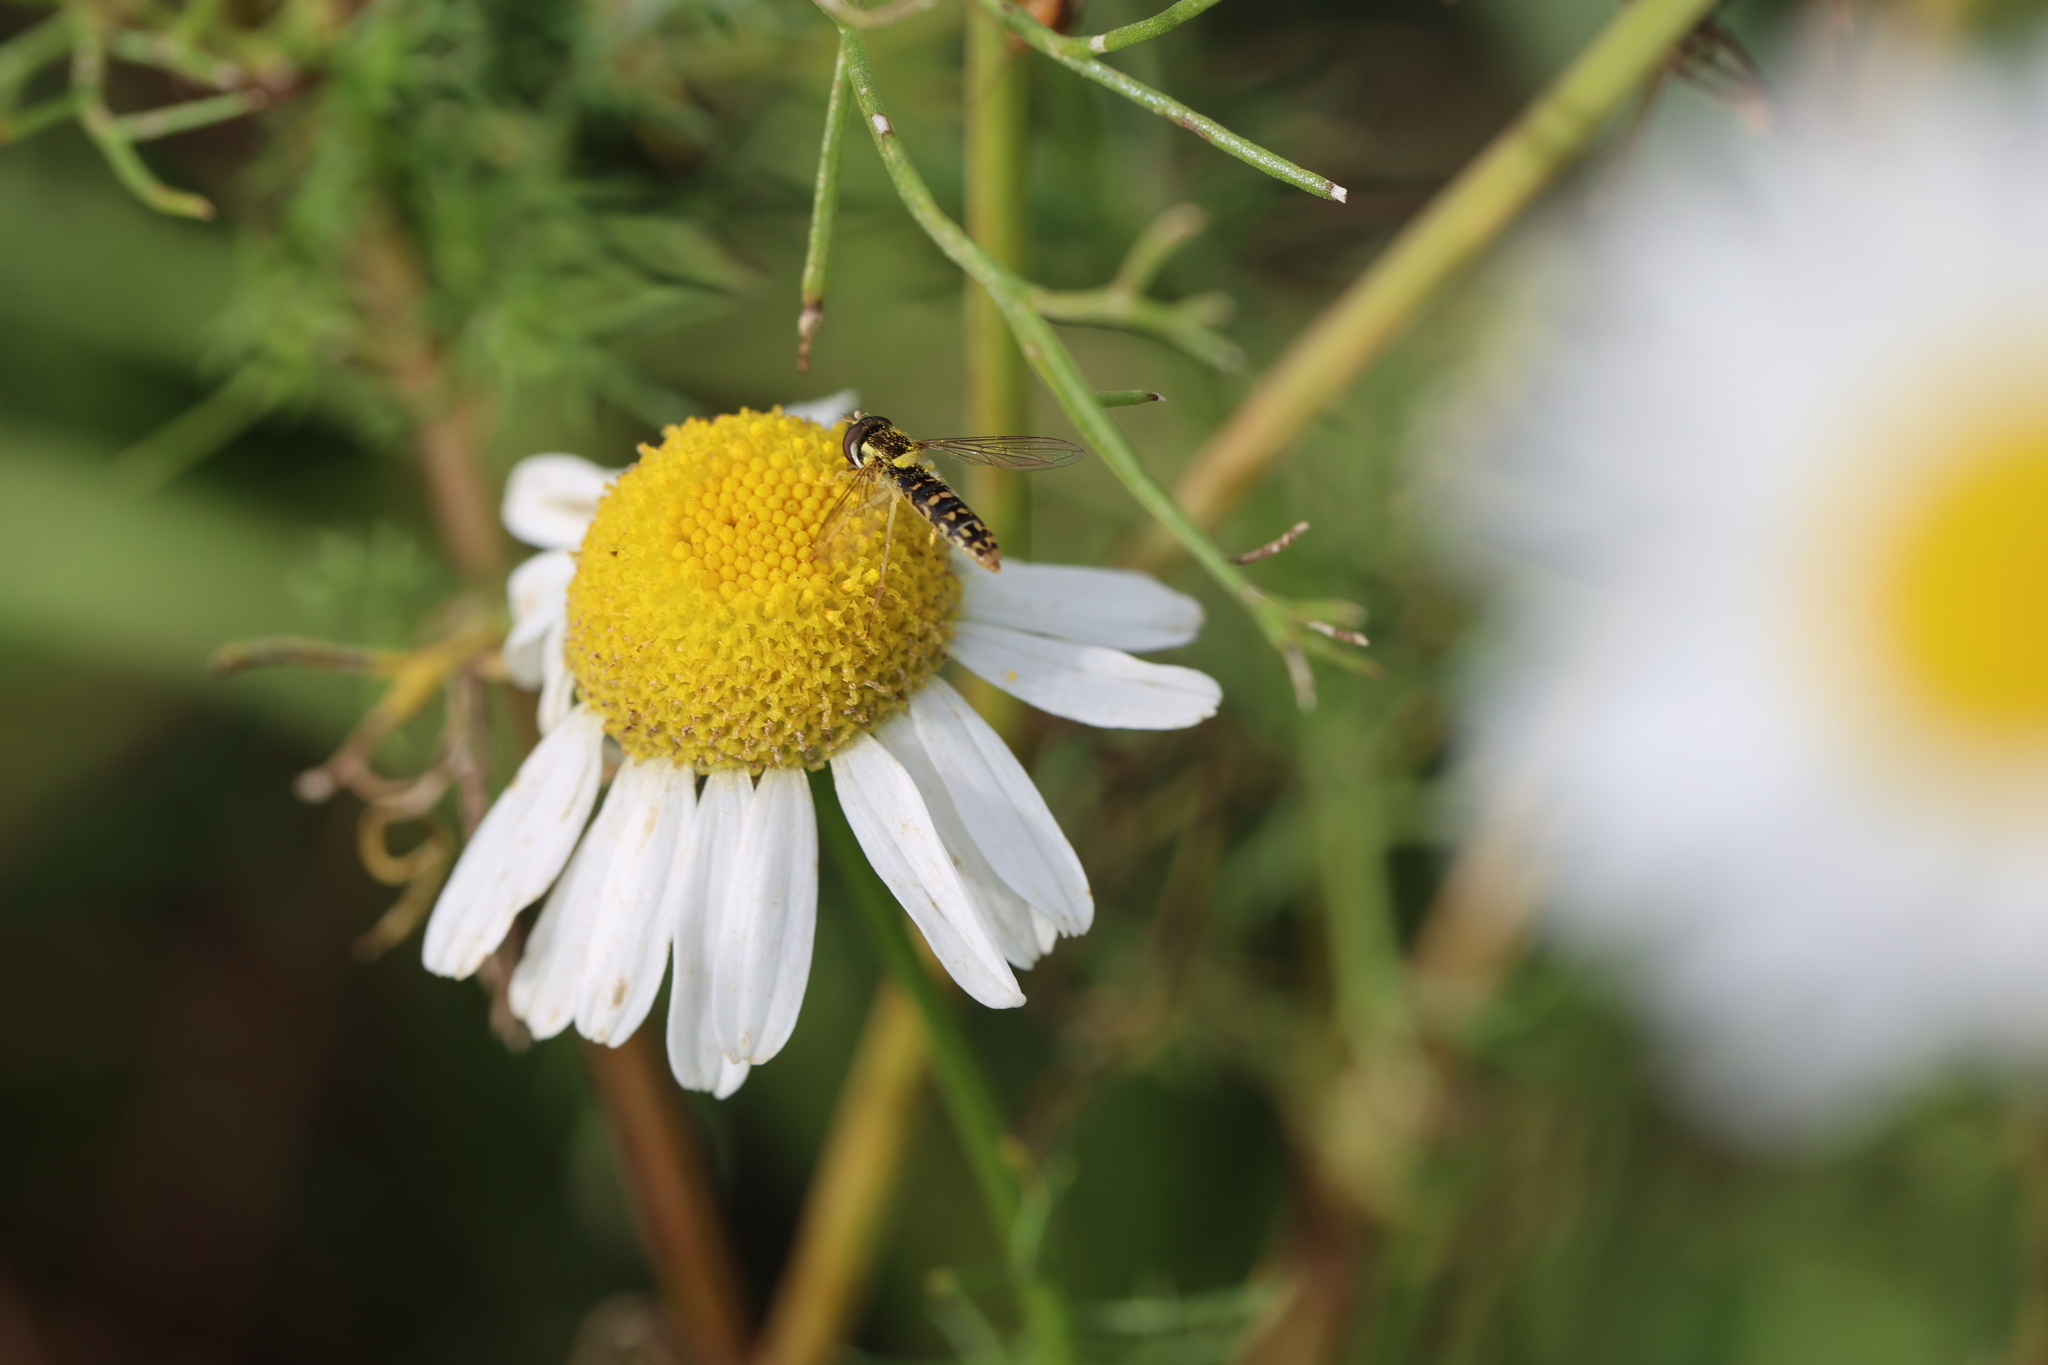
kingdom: Animalia
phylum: Arthropoda
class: Insecta
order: Diptera
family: Syrphidae
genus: Sphaerophoria
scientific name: Sphaerophoria
